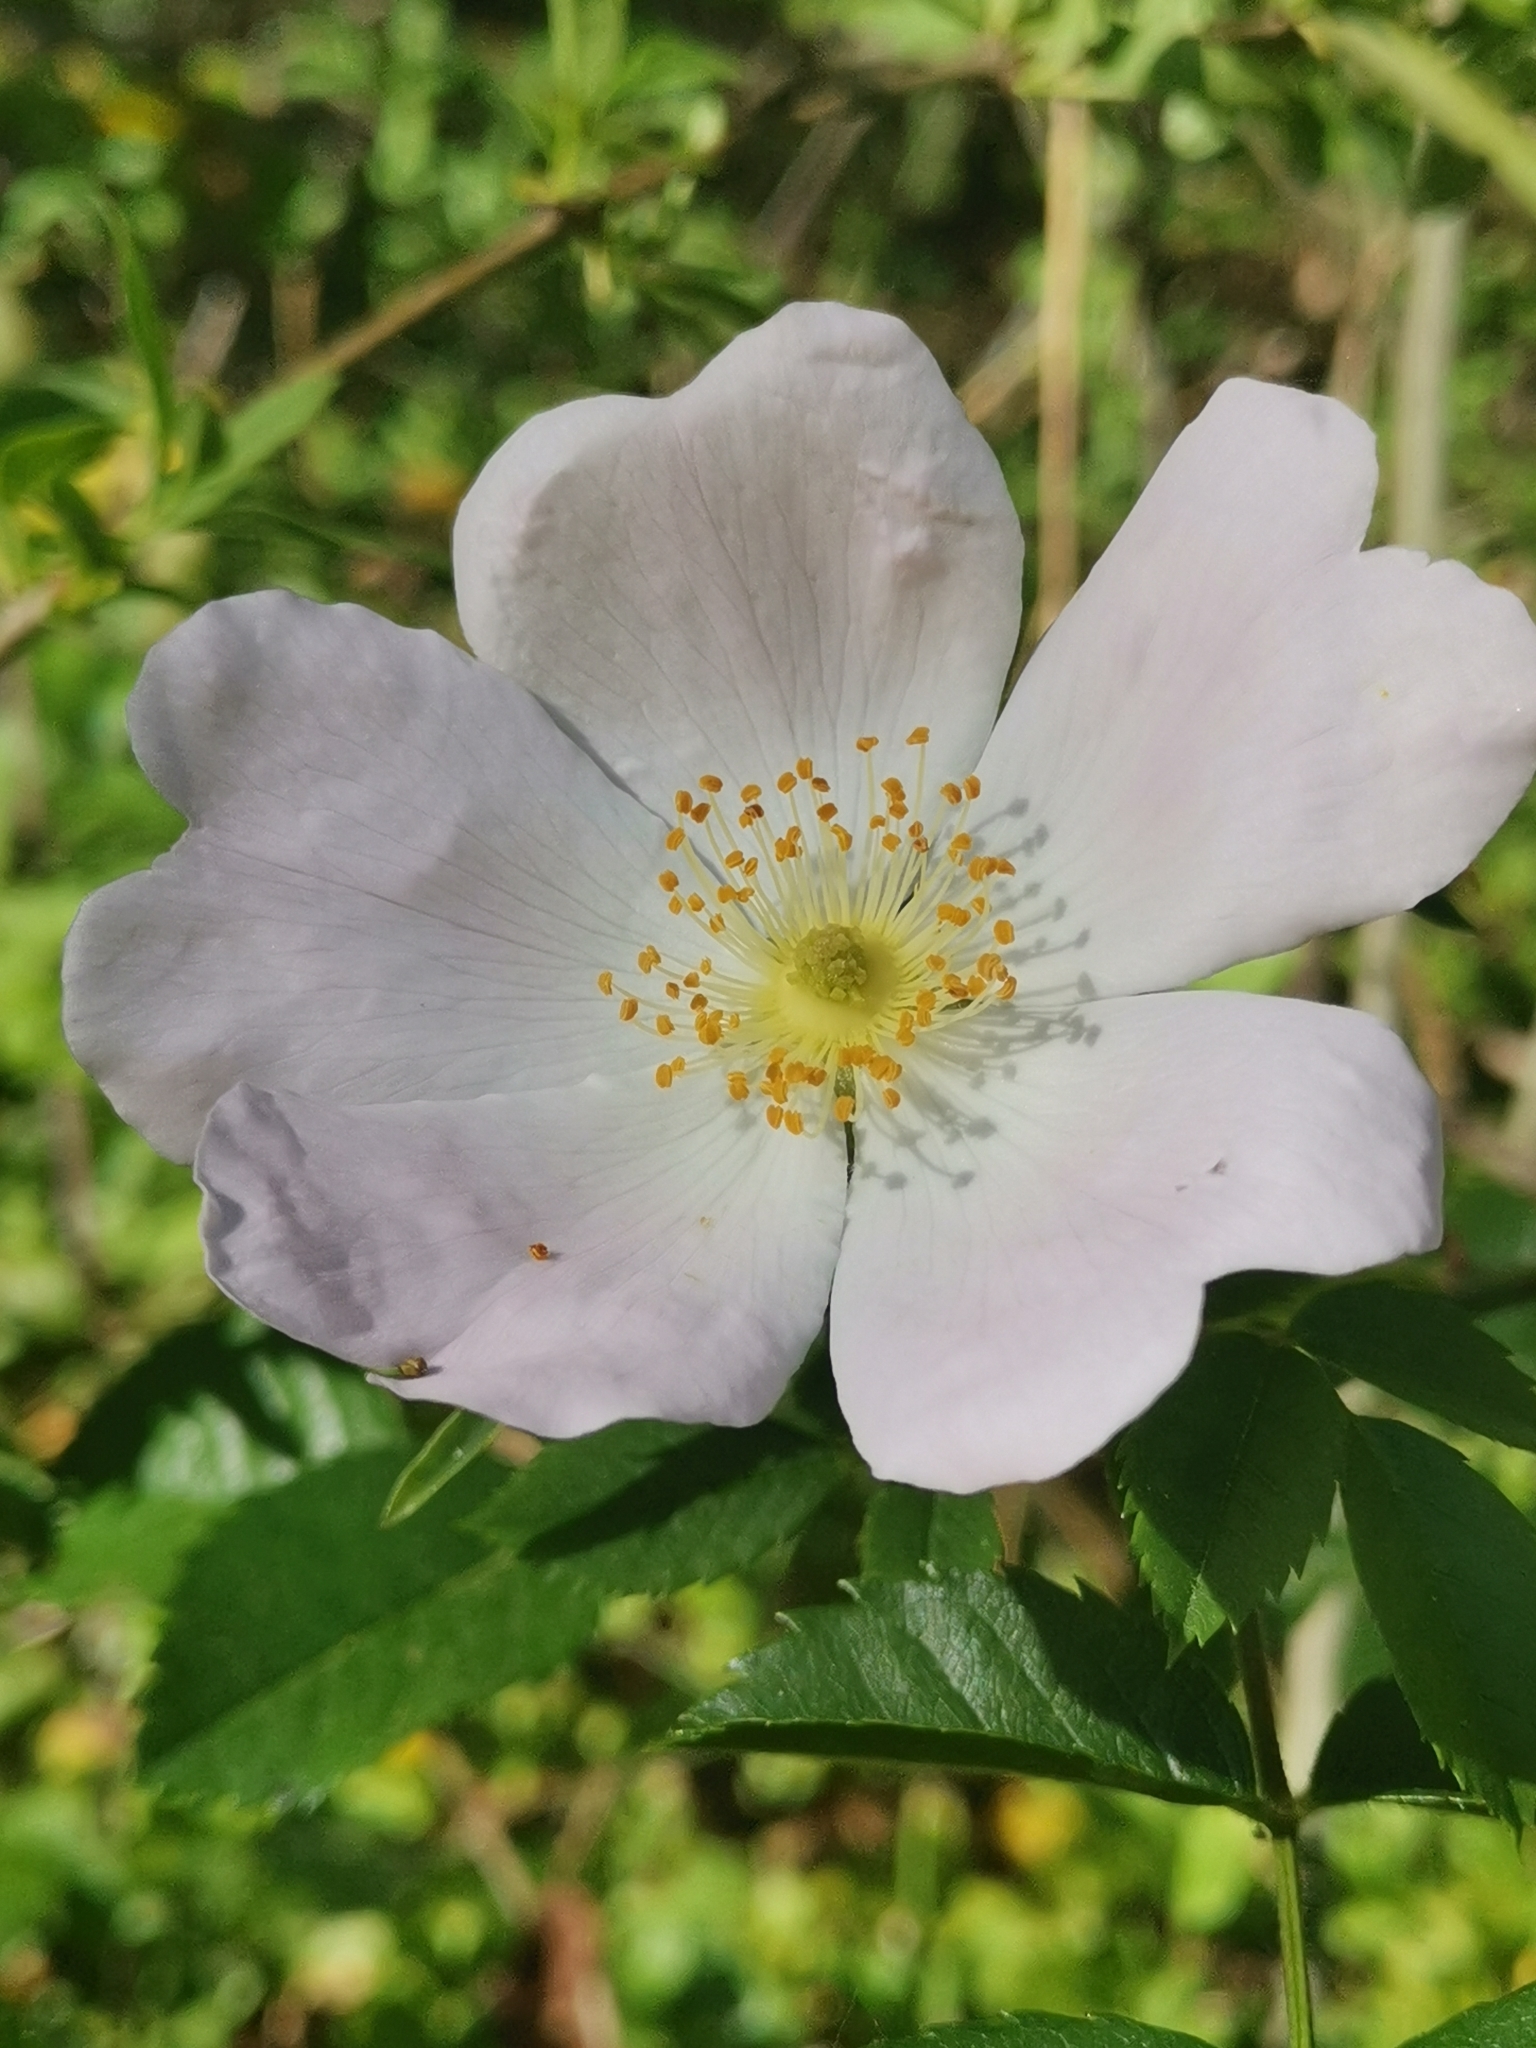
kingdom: Plantae
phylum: Tracheophyta
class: Magnoliopsida
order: Rosales
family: Rosaceae
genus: Rosa
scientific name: Rosa canina
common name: Dog rose
